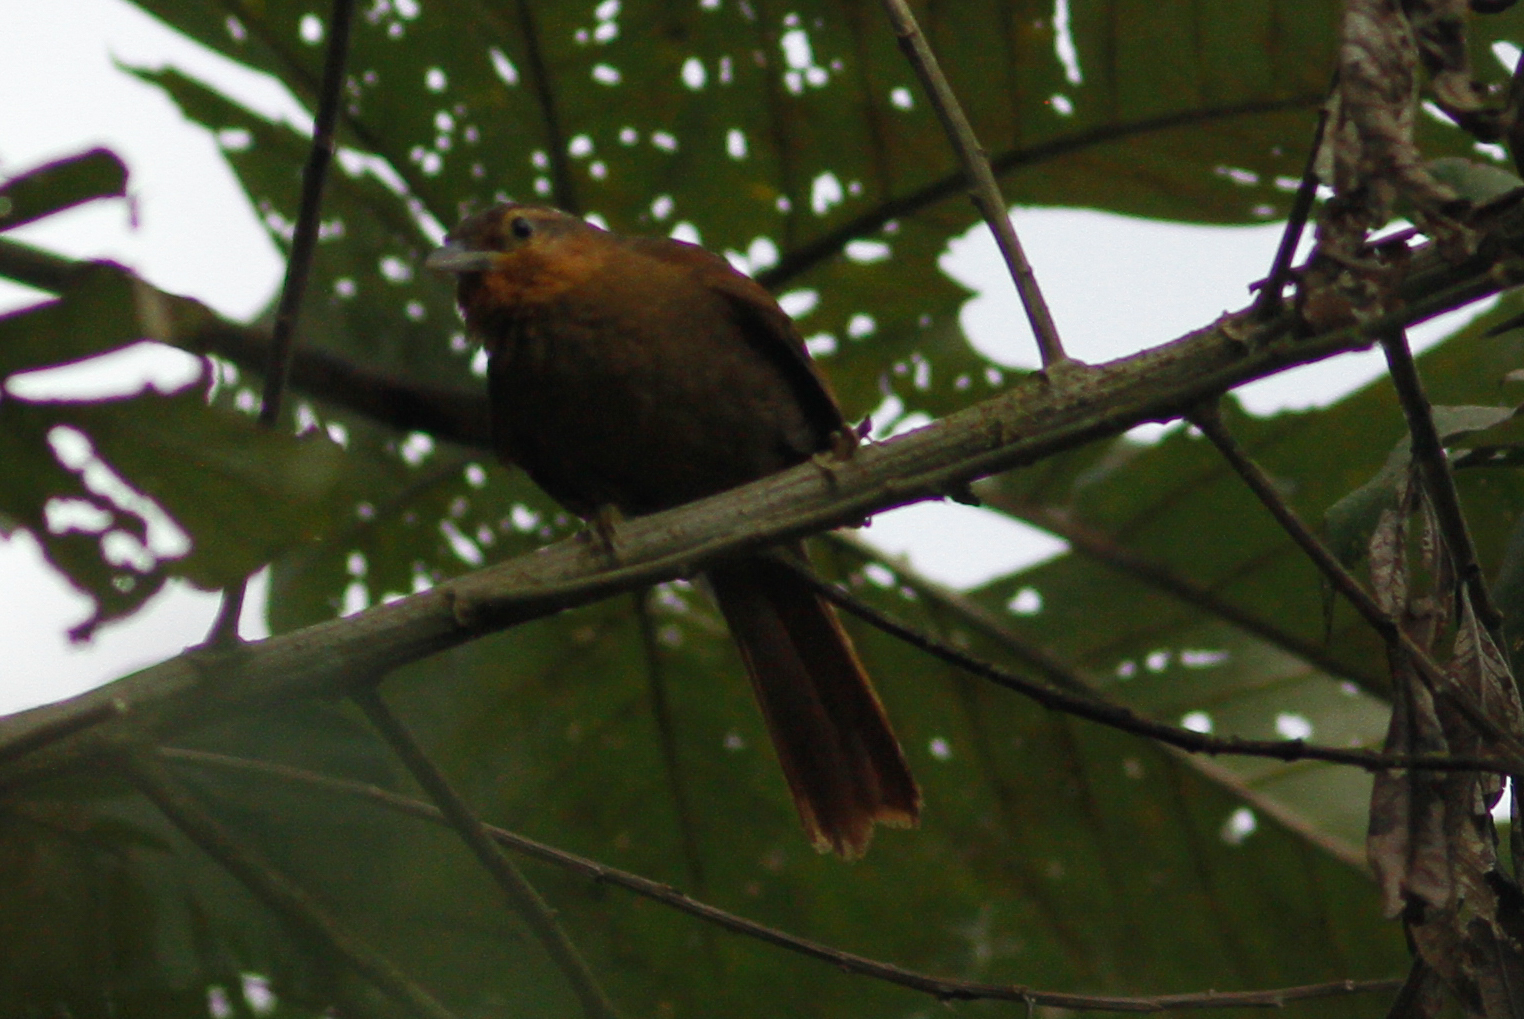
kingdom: Animalia
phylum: Chordata
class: Aves
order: Passeriformes
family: Furnariidae
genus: Philydor
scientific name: Philydor rufum
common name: Buff-fronted foliage-gleaner
